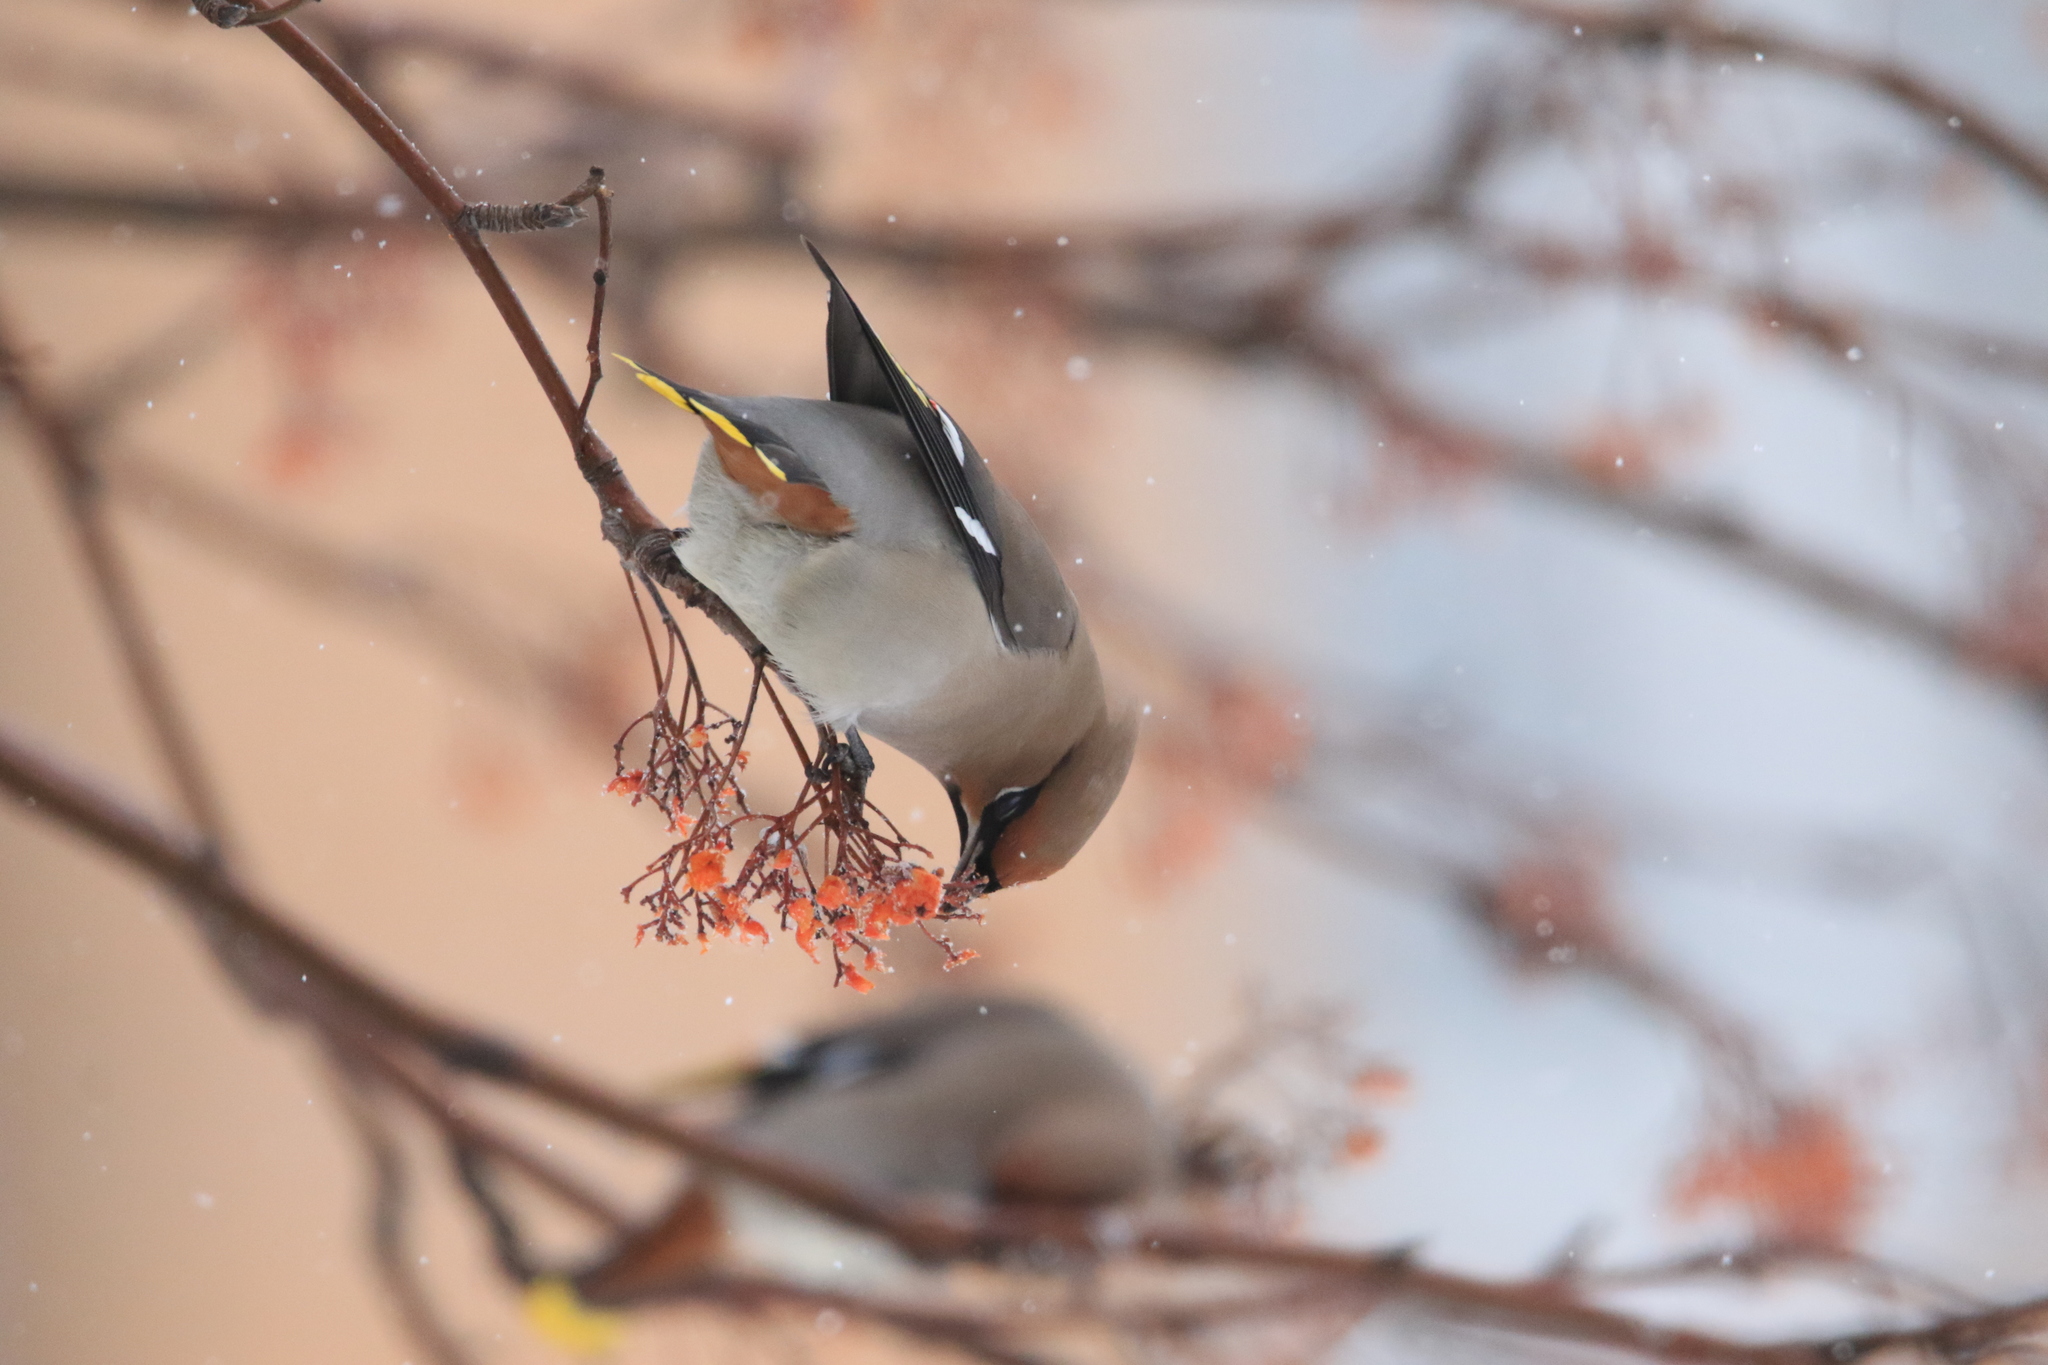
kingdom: Animalia
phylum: Chordata
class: Aves
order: Passeriformes
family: Bombycillidae
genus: Bombycilla
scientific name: Bombycilla garrulus
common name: Bohemian waxwing
